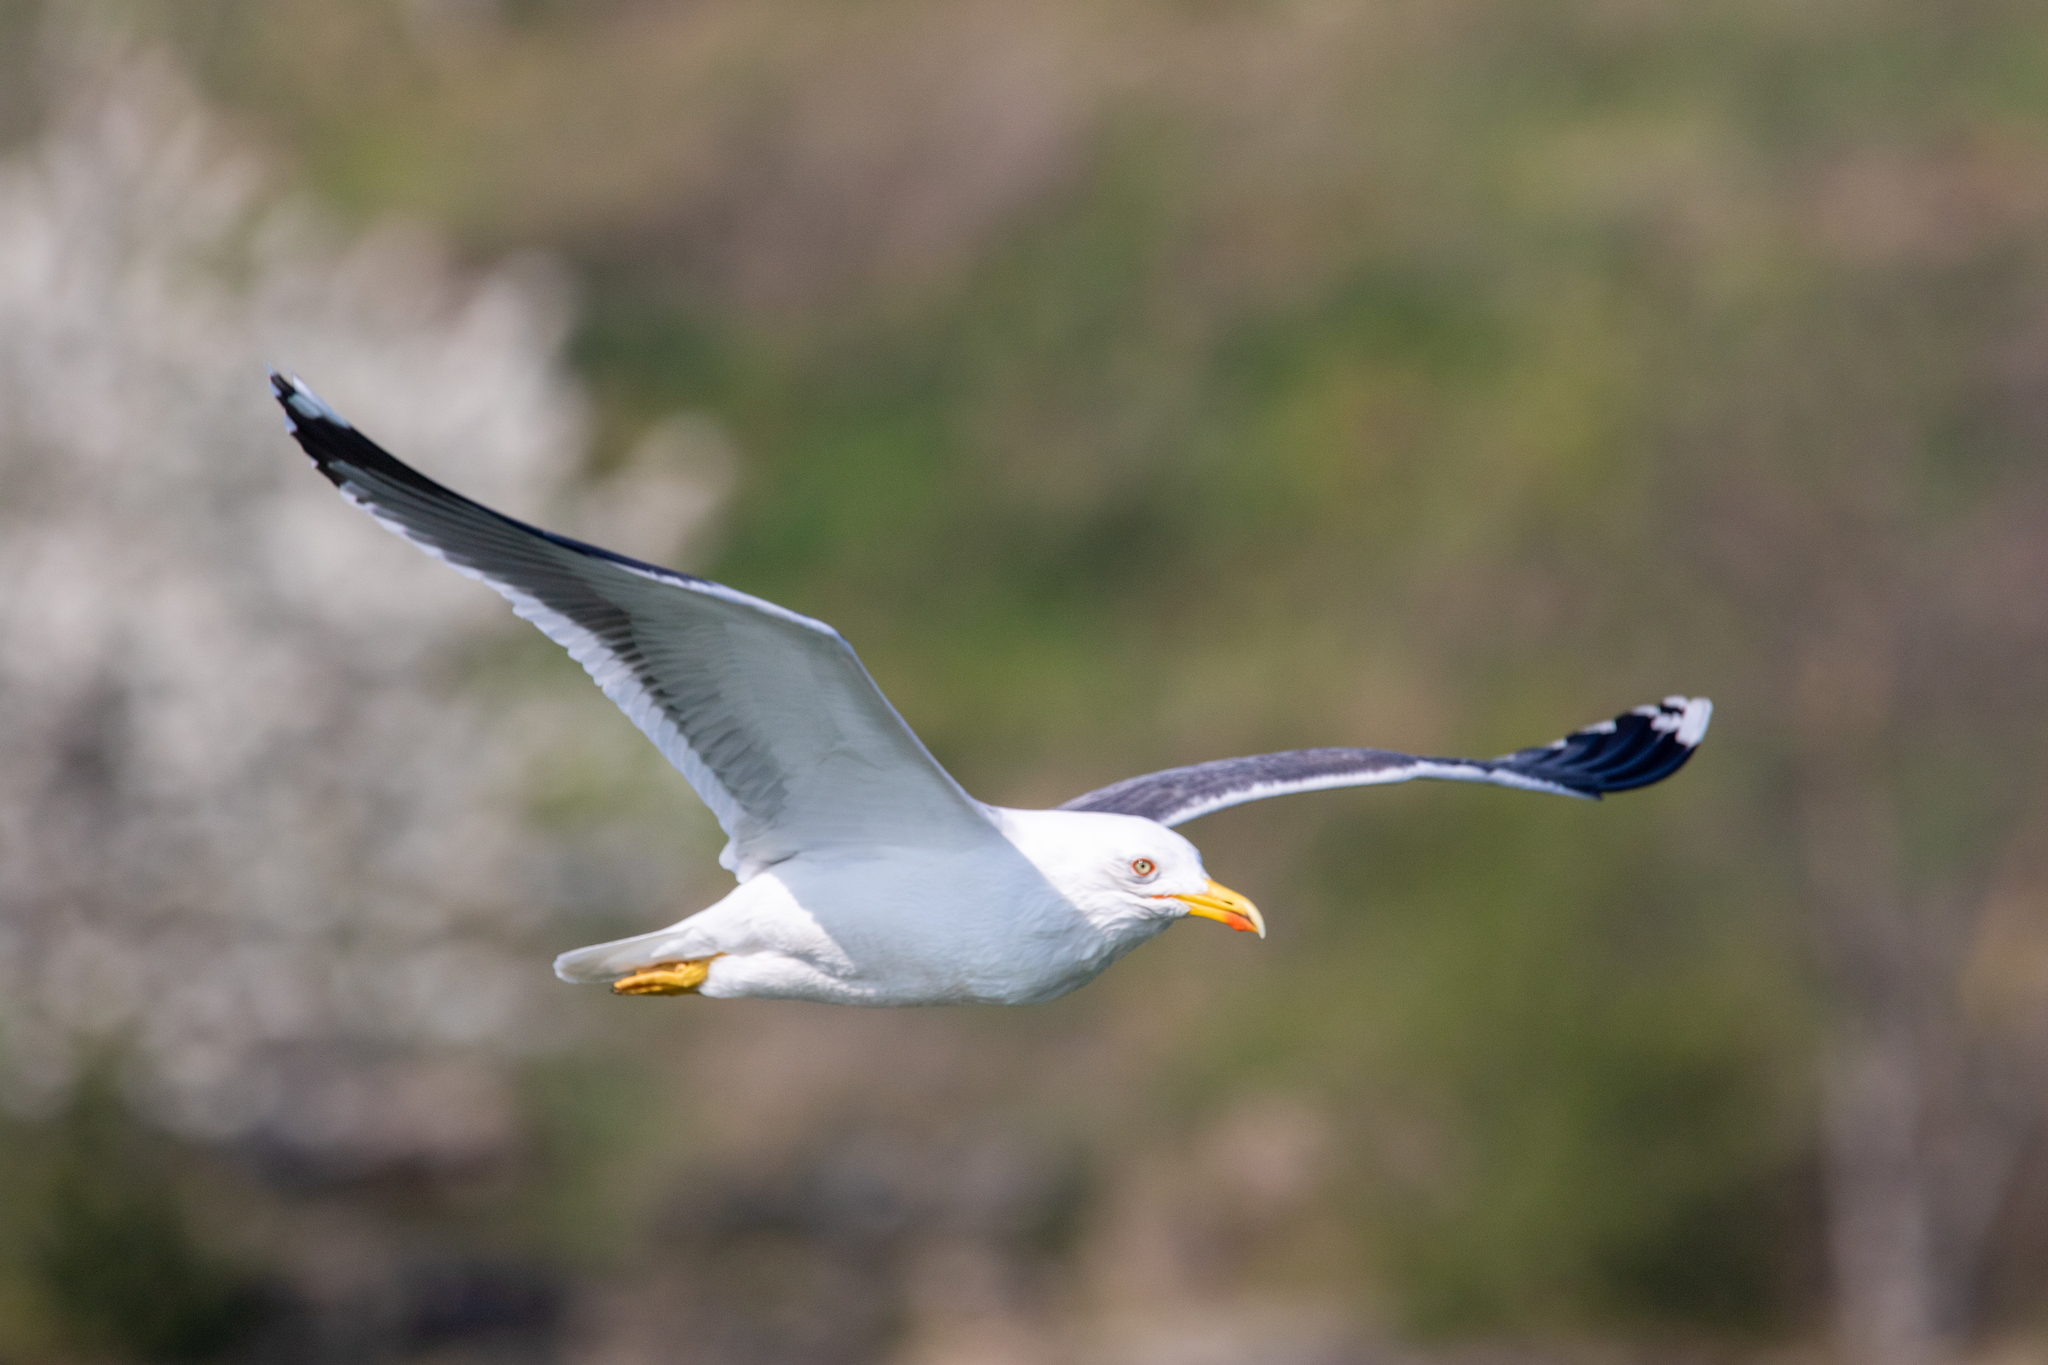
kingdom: Animalia
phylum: Chordata
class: Aves
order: Charadriiformes
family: Laridae
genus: Larus
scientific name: Larus fuscus
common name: Lesser black-backed gull
